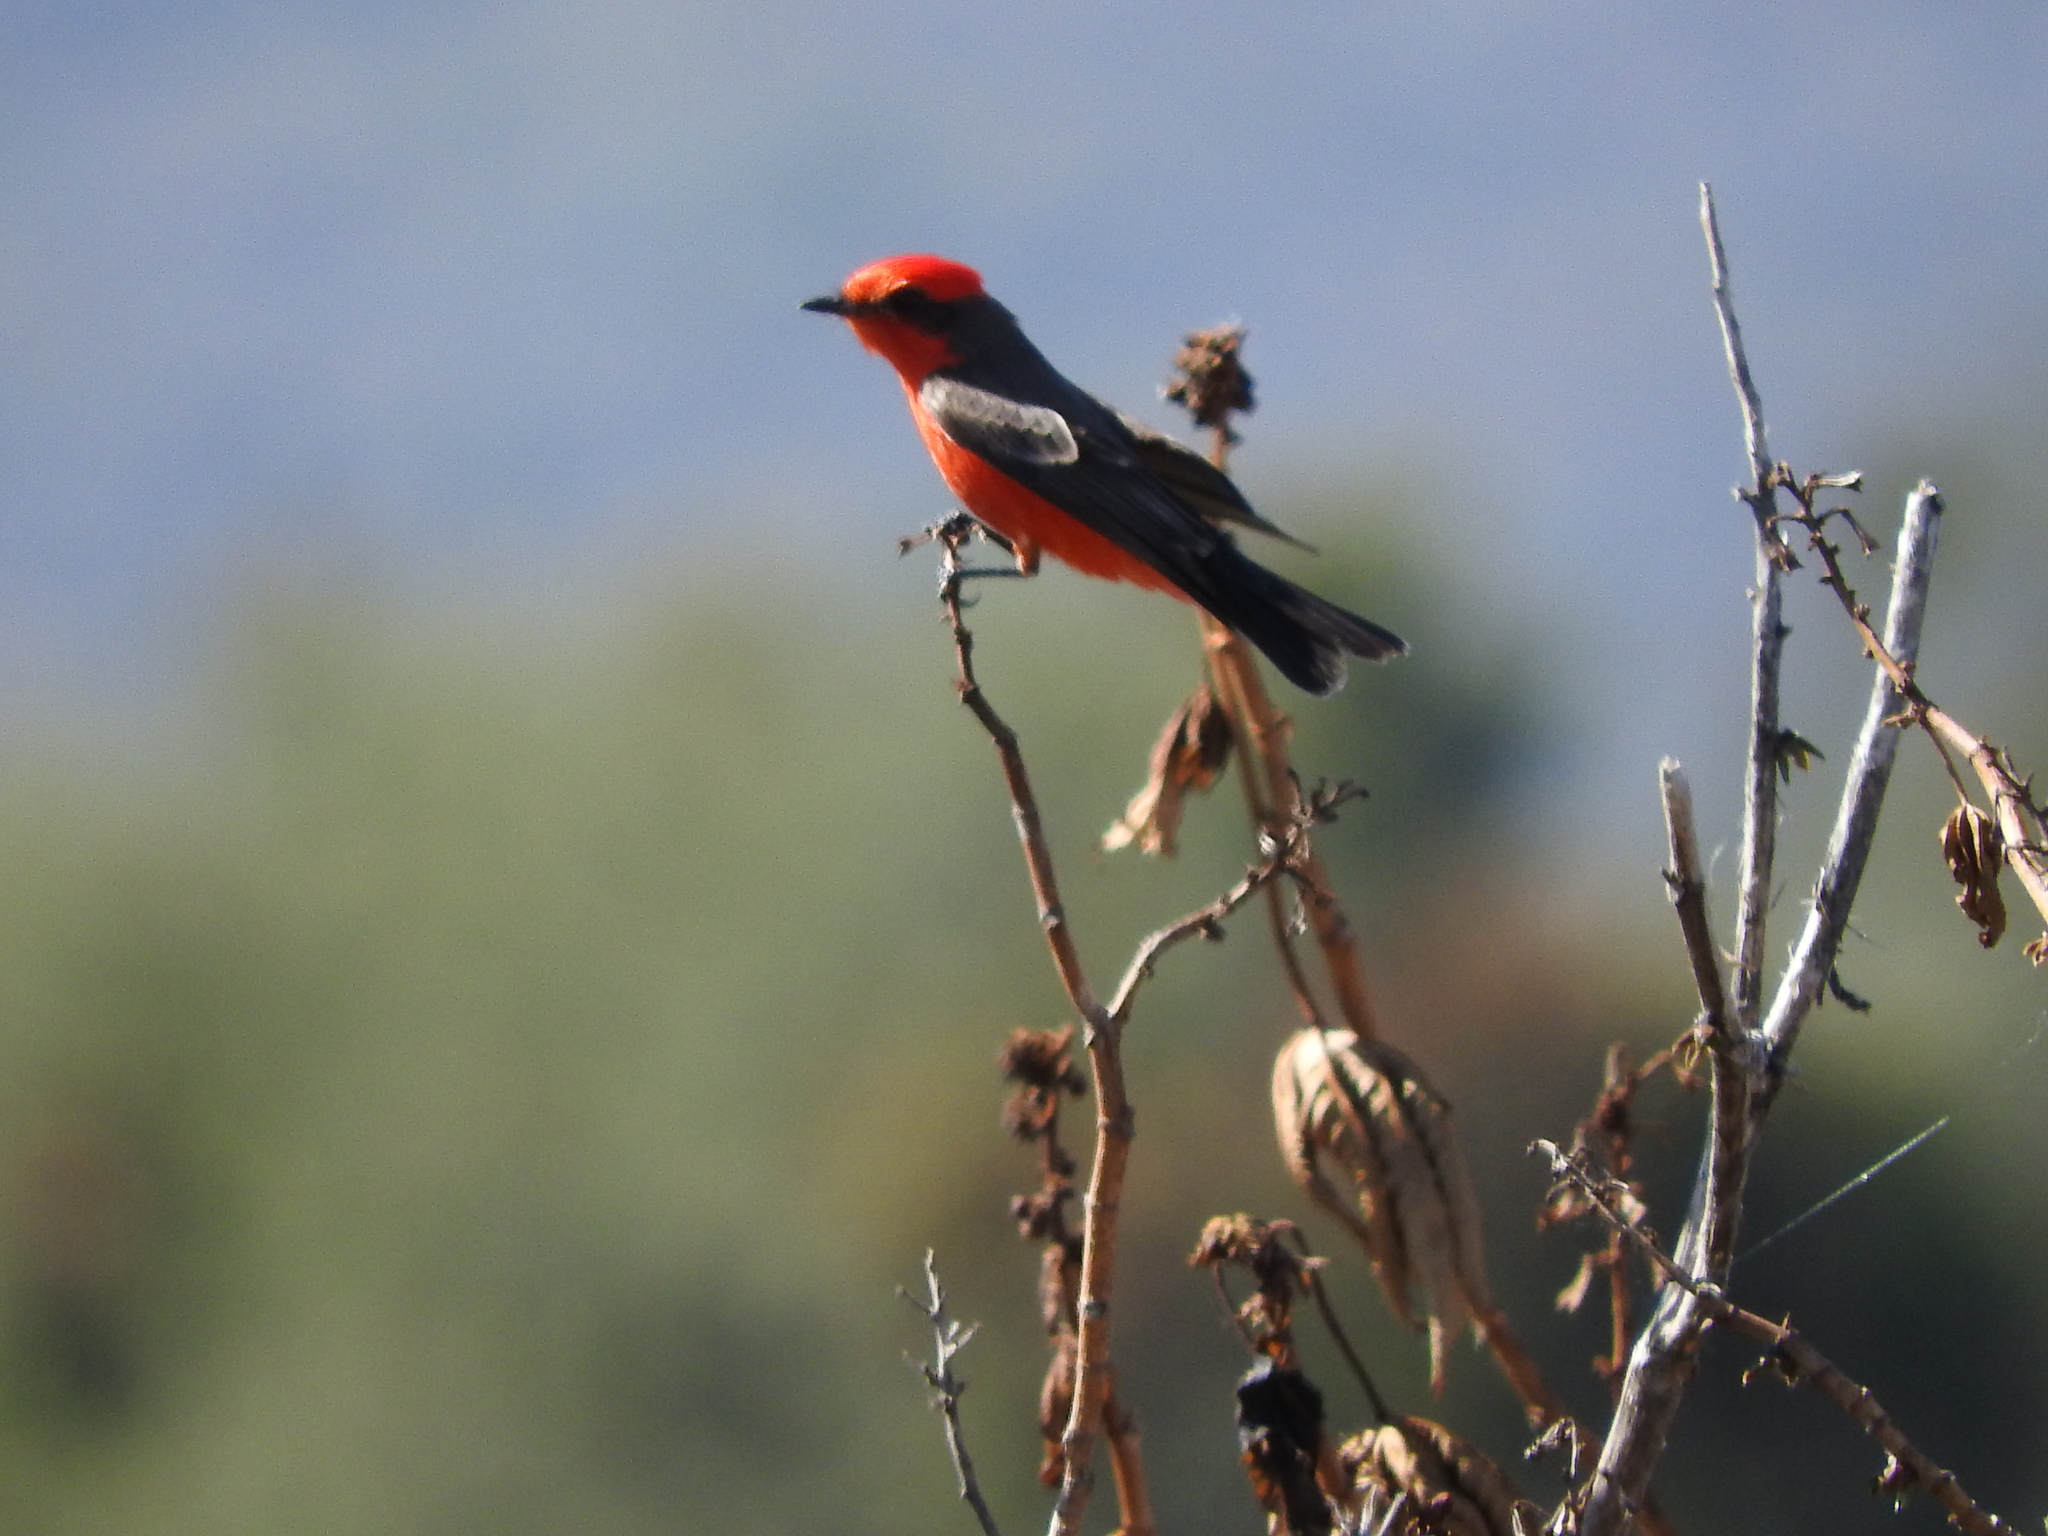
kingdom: Animalia
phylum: Chordata
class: Aves
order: Passeriformes
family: Tyrannidae
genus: Pyrocephalus
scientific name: Pyrocephalus rubinus
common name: Vermilion flycatcher
